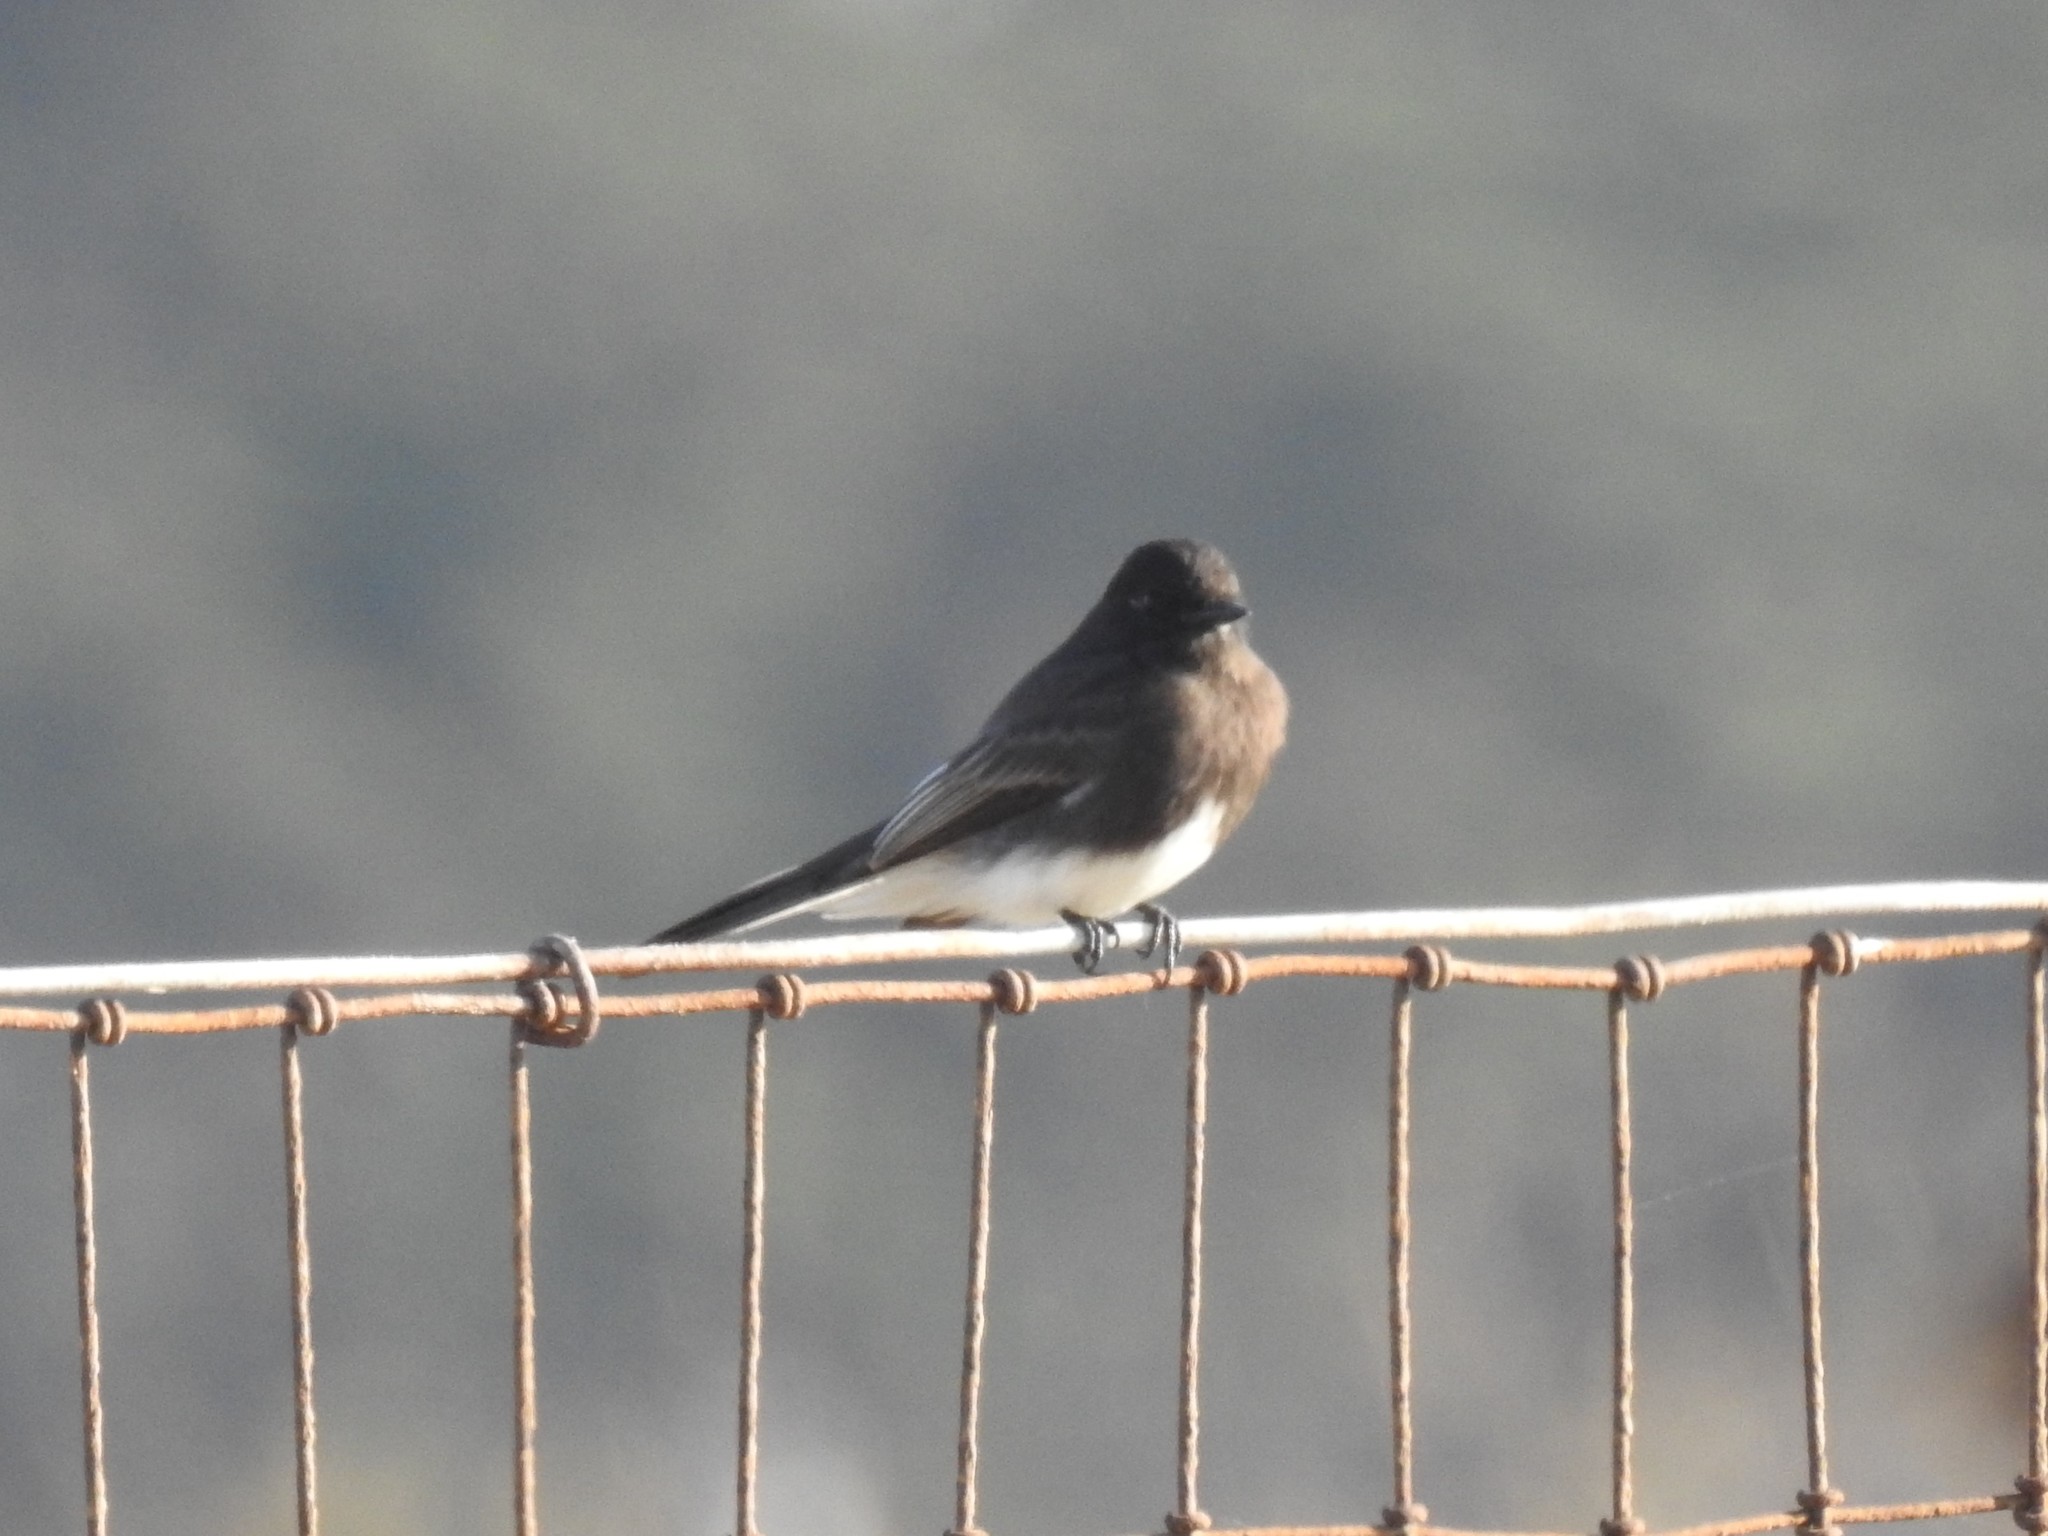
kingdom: Animalia
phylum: Chordata
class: Aves
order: Passeriformes
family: Tyrannidae
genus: Sayornis
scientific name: Sayornis nigricans
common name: Black phoebe
